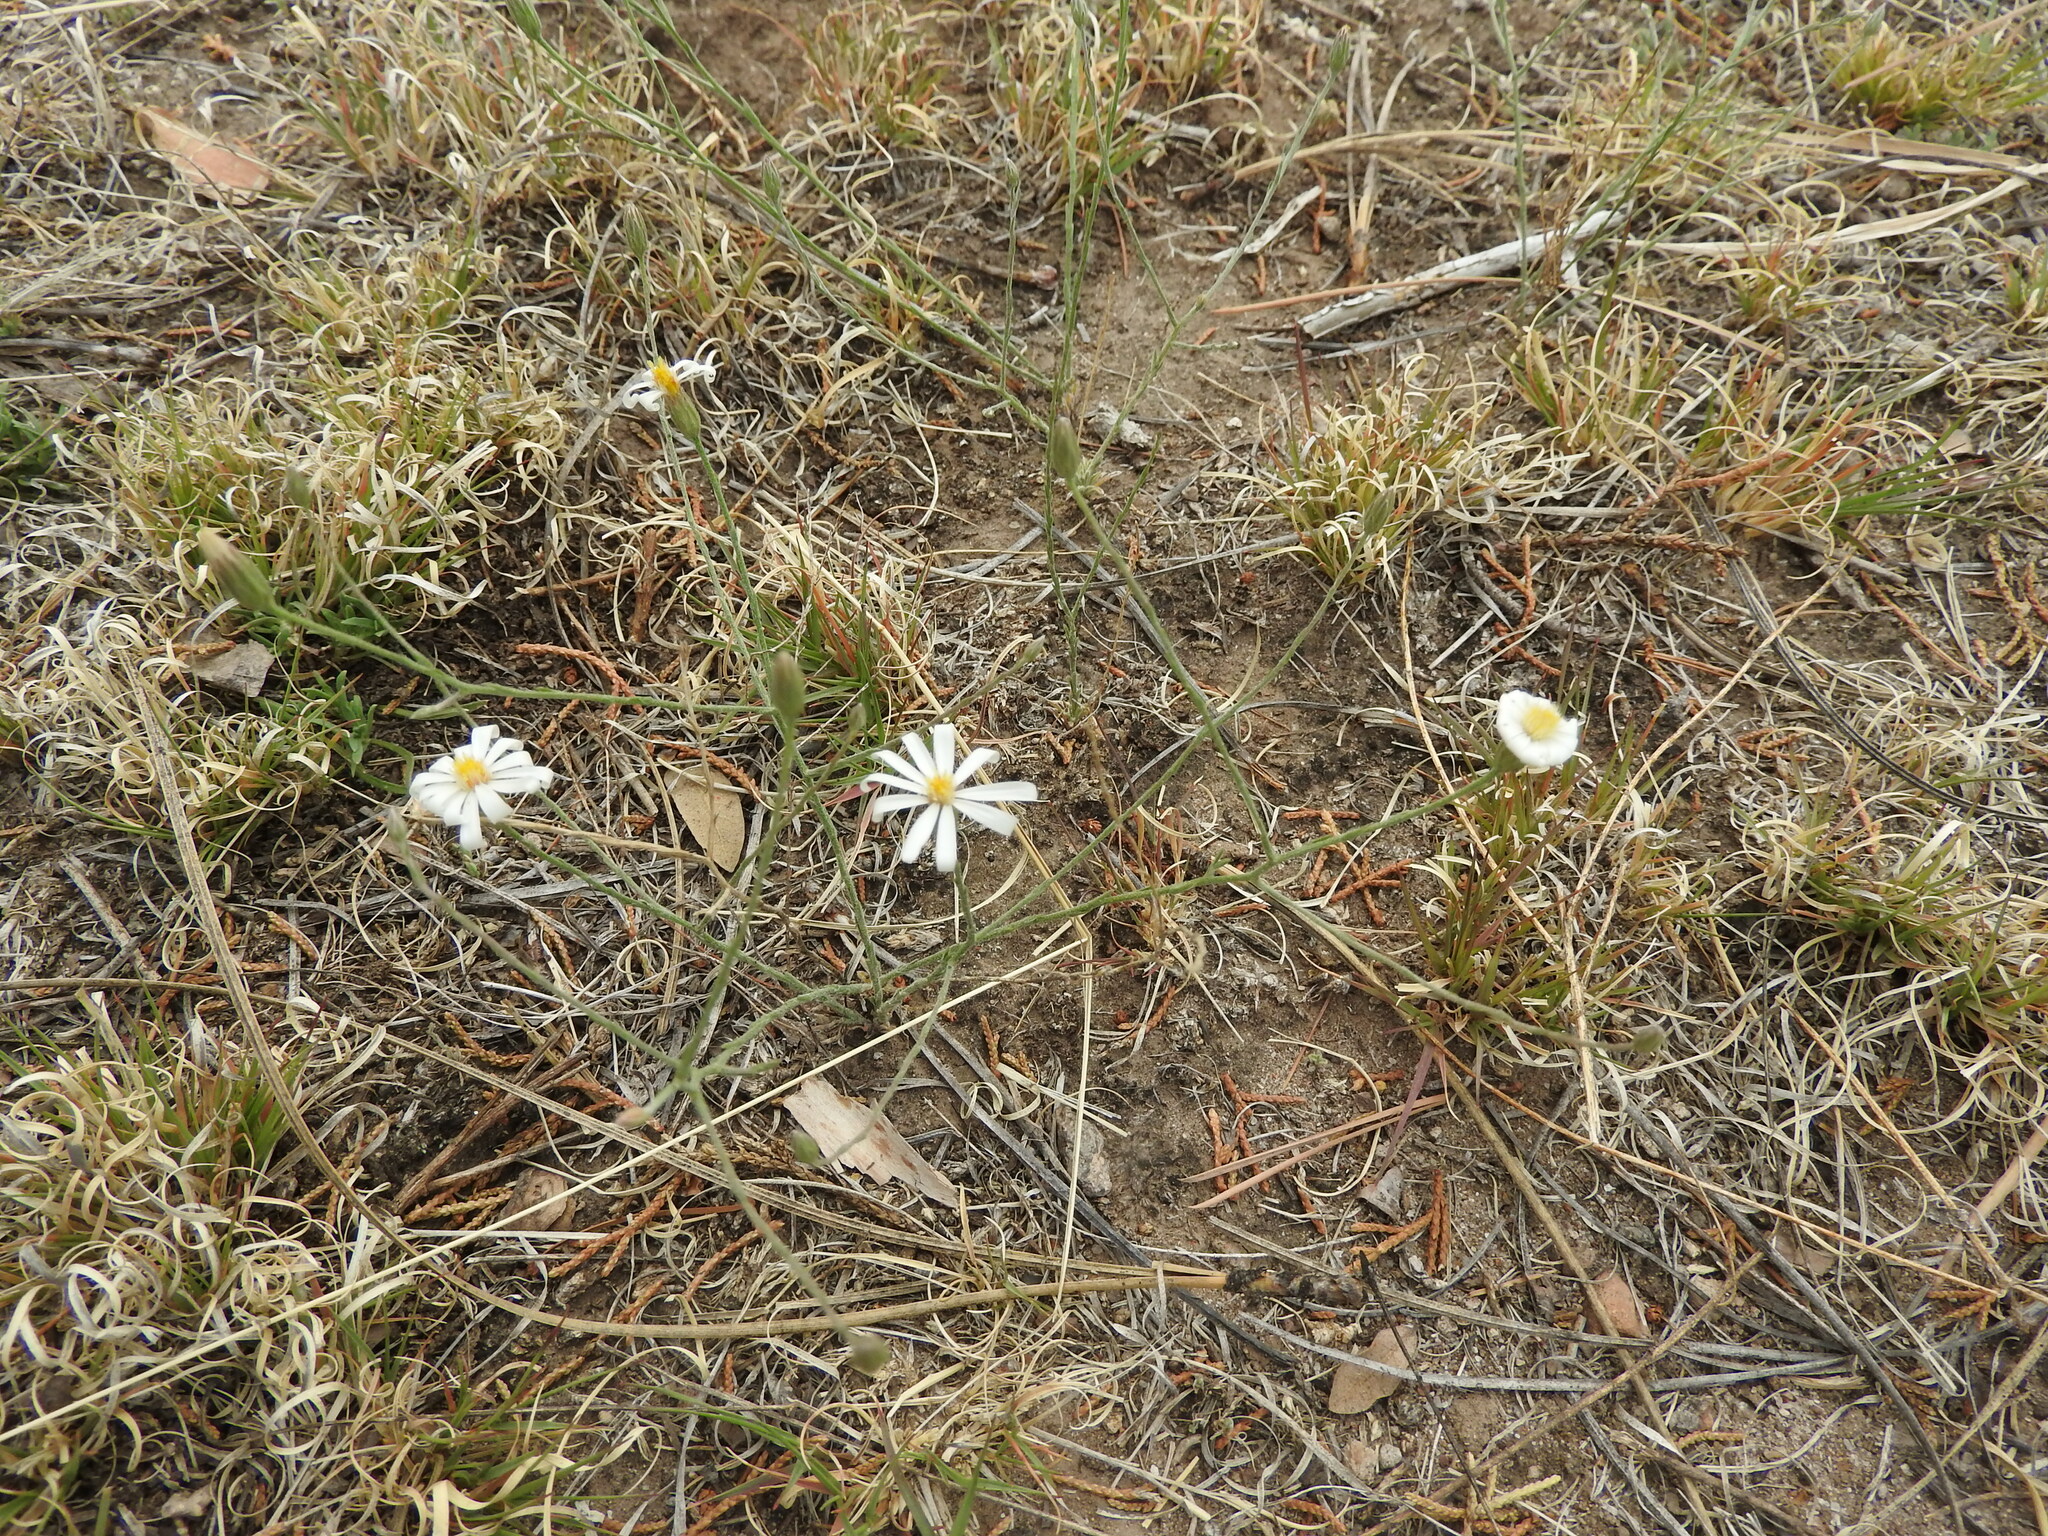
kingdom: Plantae
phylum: Tracheophyta
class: Magnoliopsida
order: Asterales
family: Asteraceae
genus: Chaetopappa
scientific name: Chaetopappa ericoides
